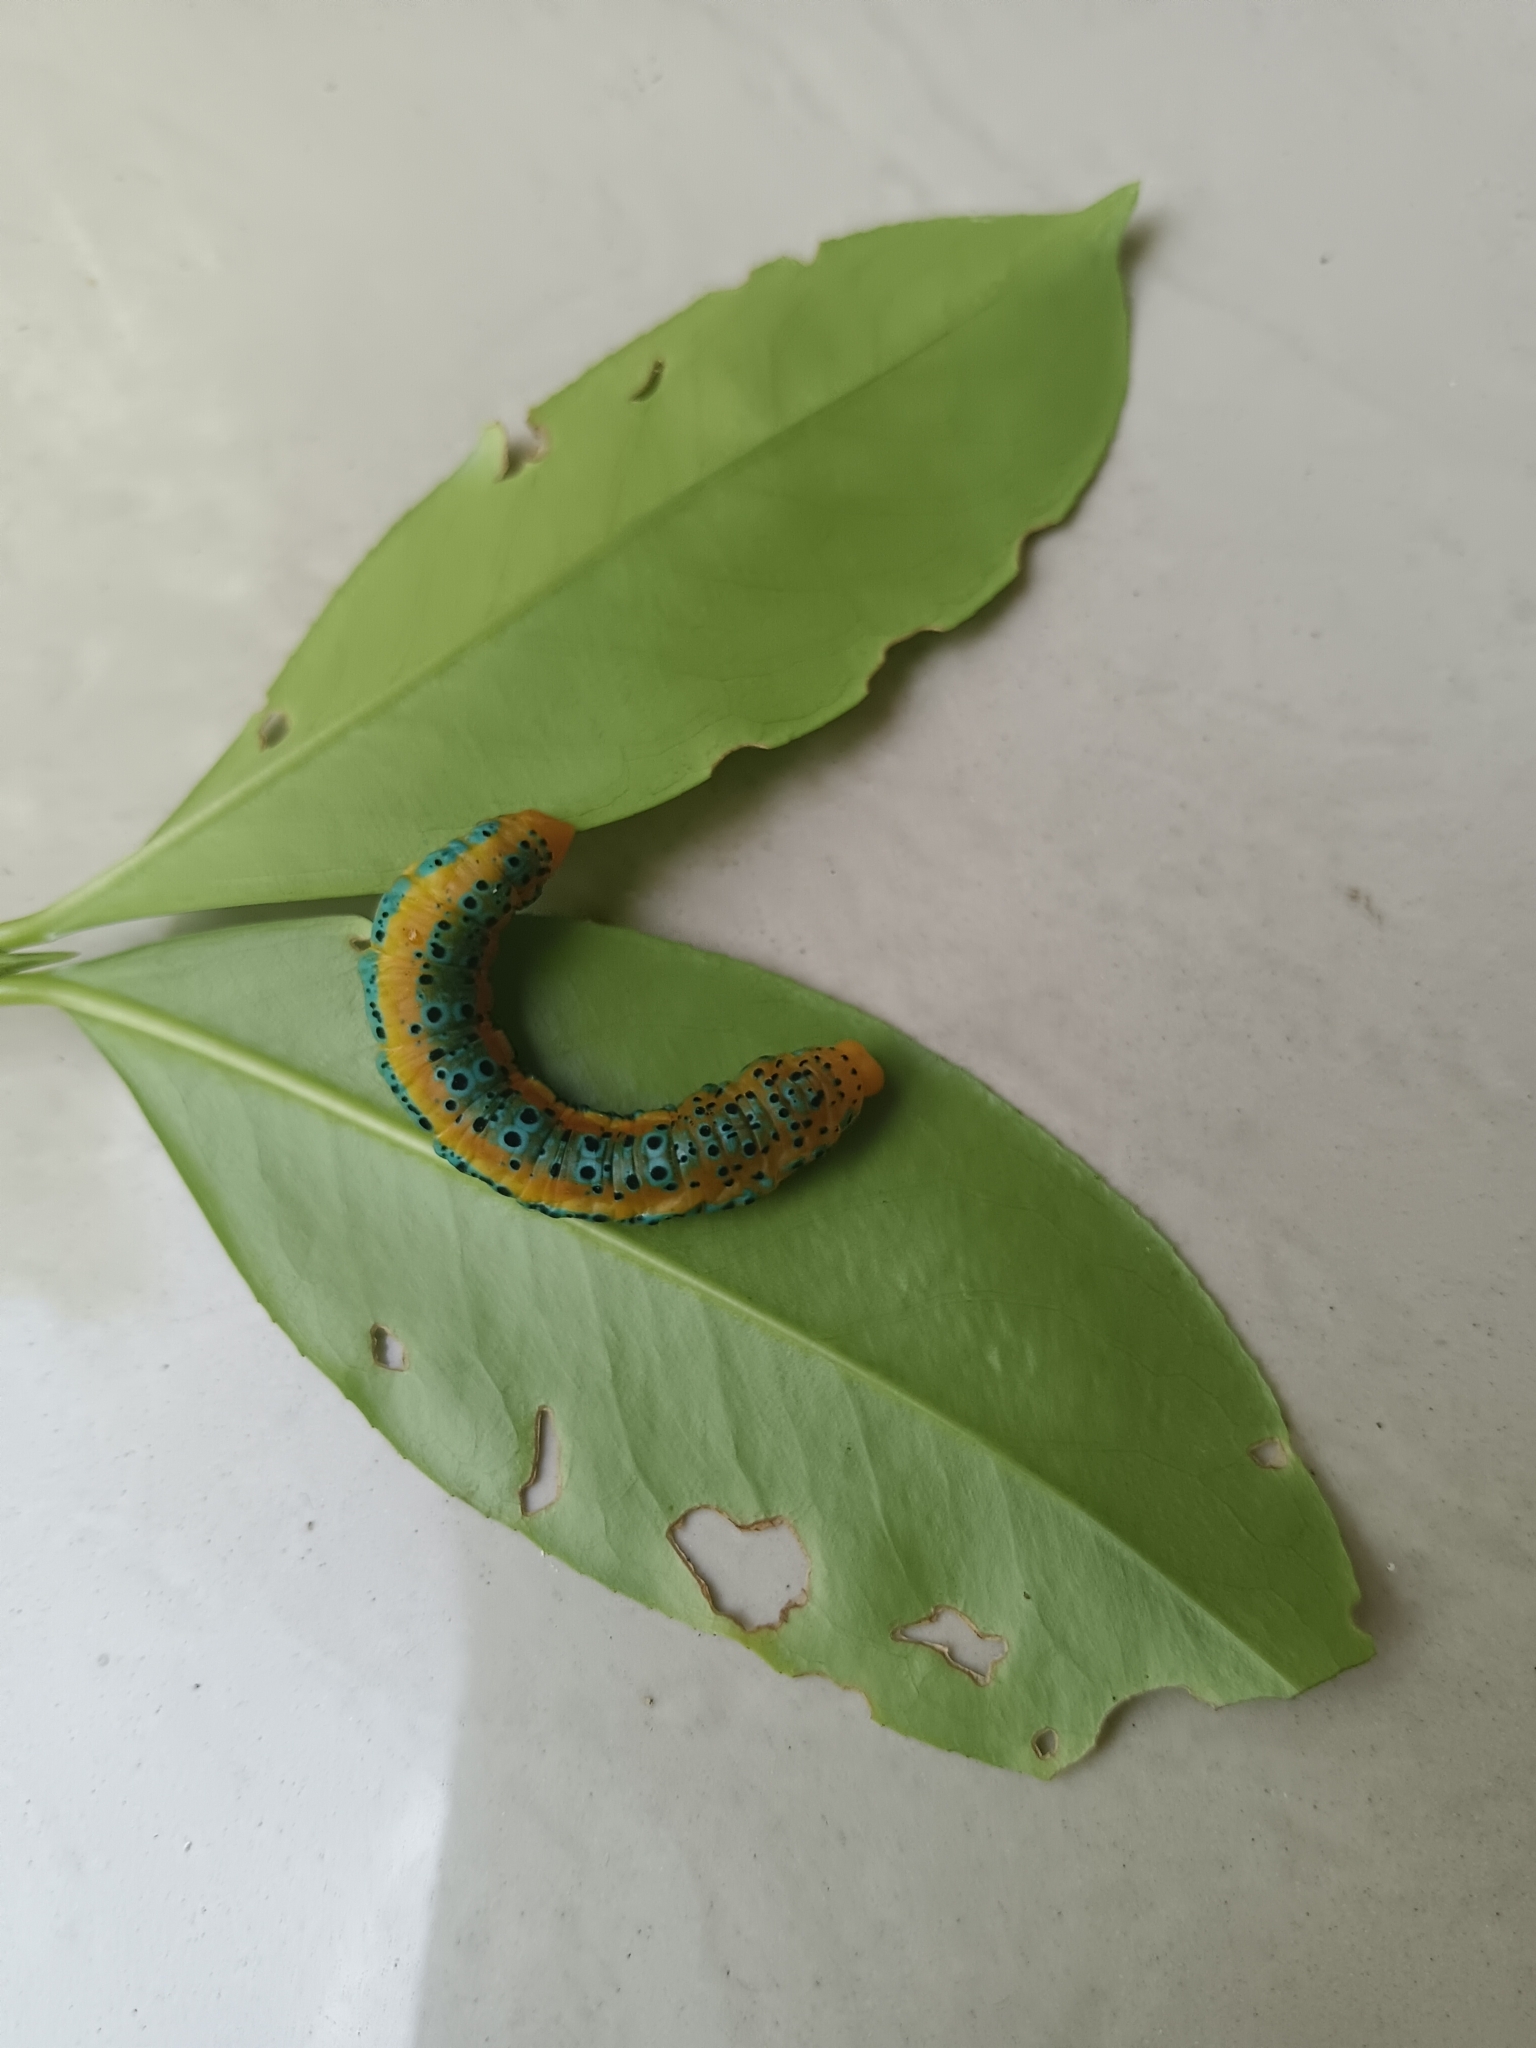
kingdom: Animalia
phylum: Arthropoda
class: Insecta
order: Lepidoptera
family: Geometridae
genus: Dysphania
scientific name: Dysphania percota
